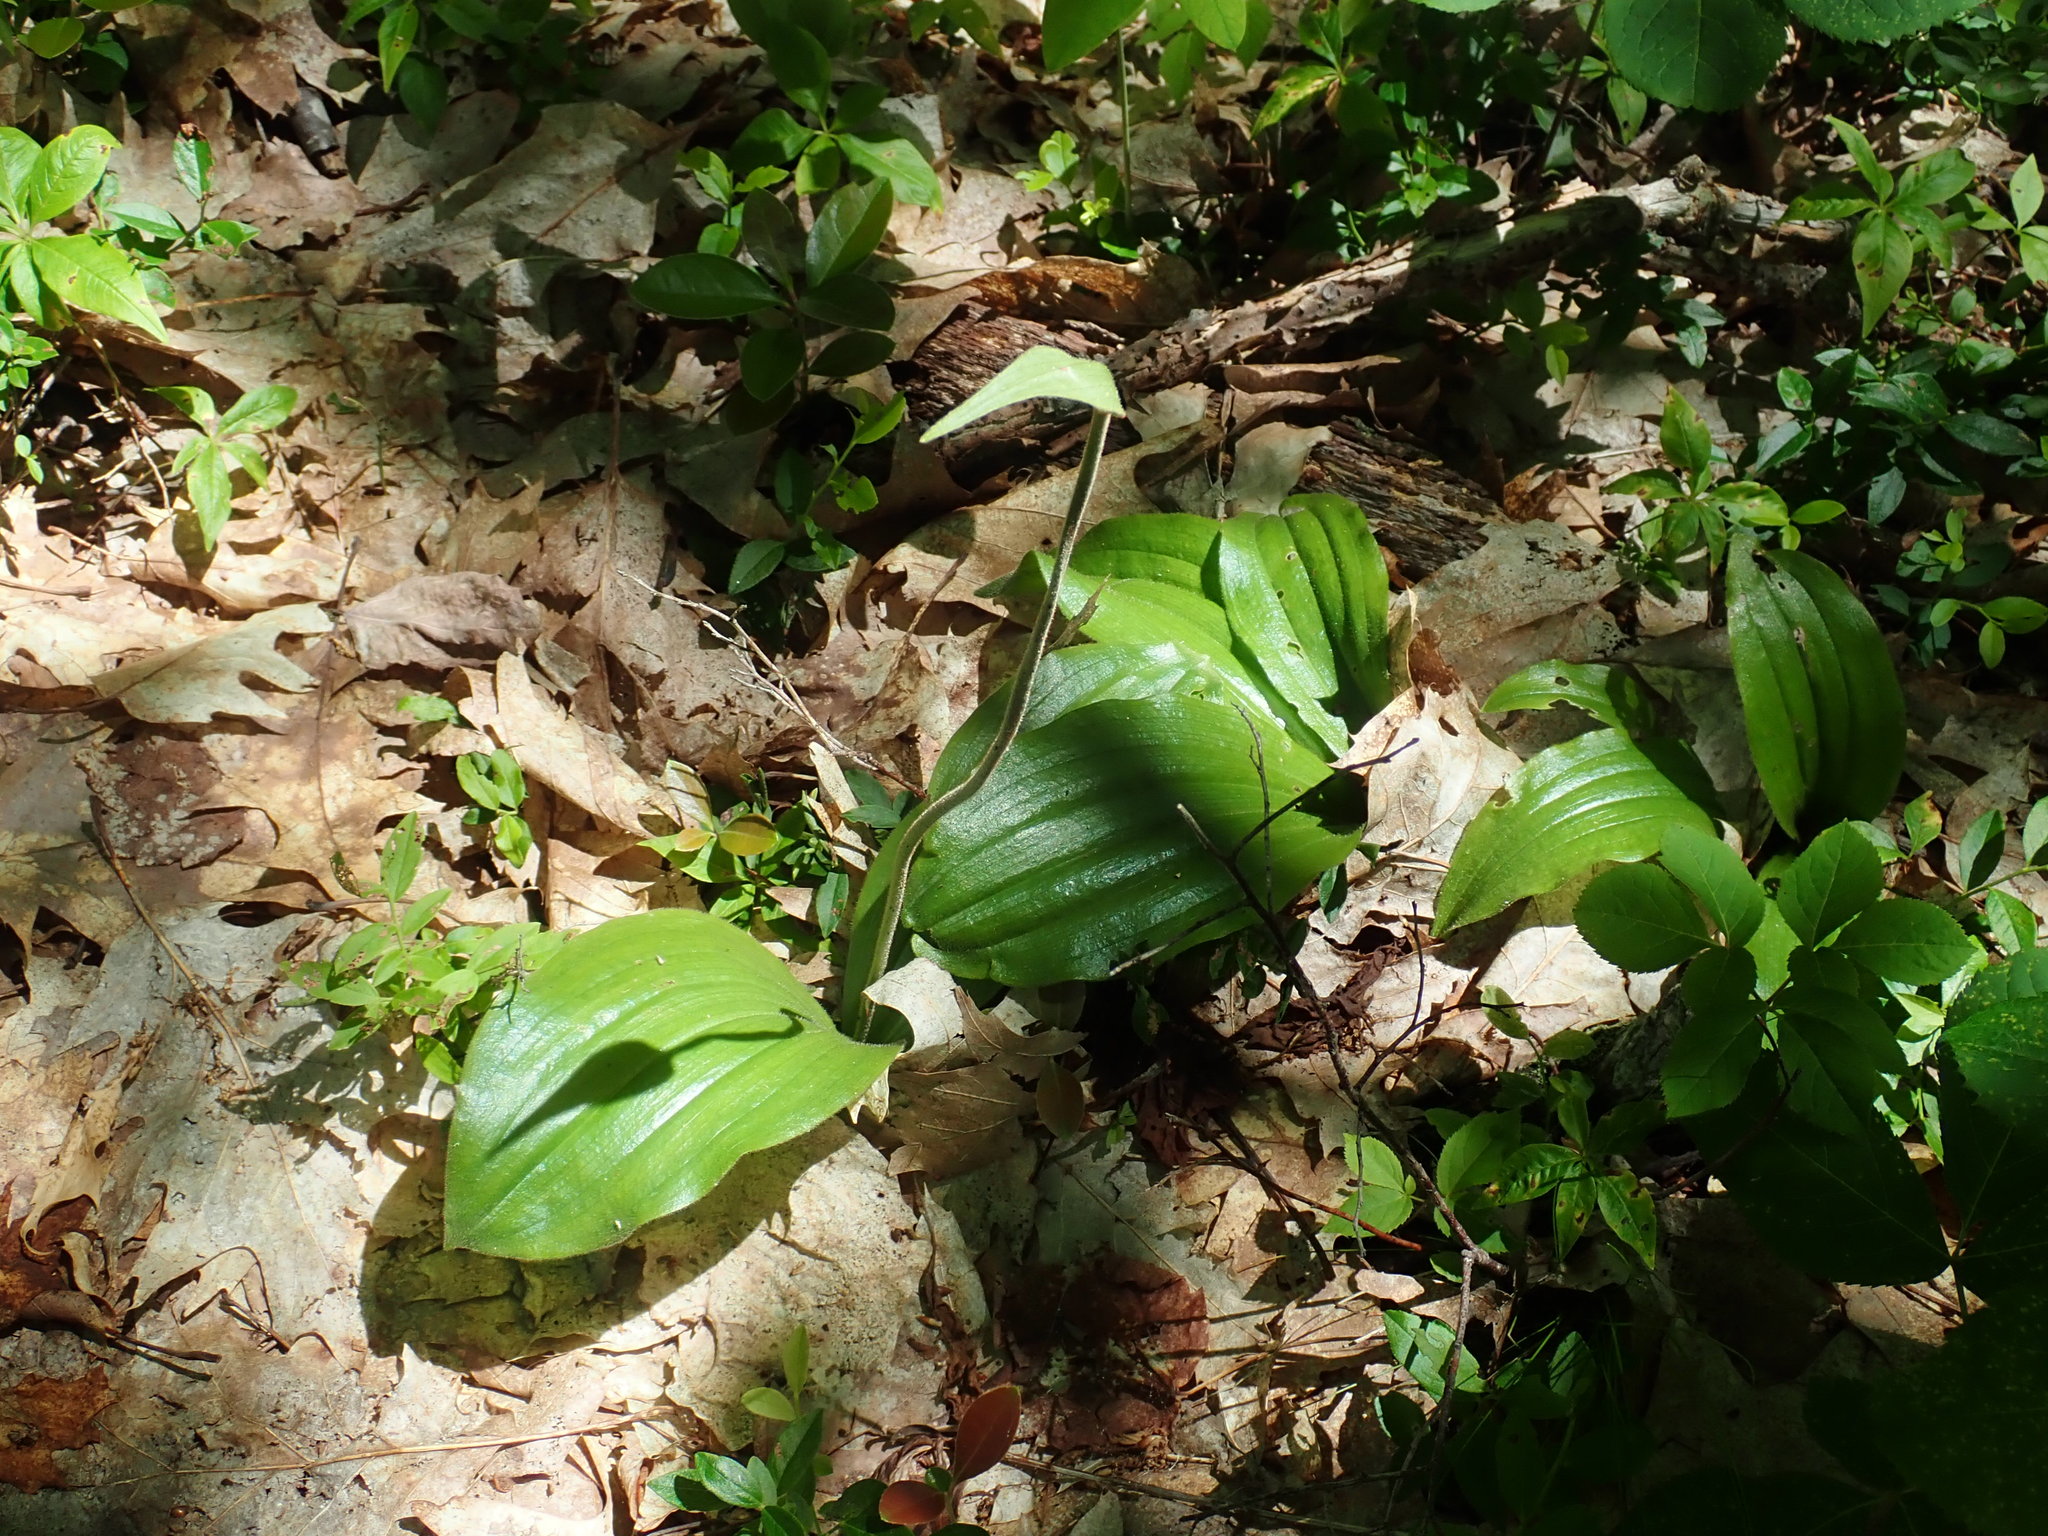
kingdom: Plantae
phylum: Tracheophyta
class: Liliopsida
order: Asparagales
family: Orchidaceae
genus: Cypripedium
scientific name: Cypripedium acaule
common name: Pink lady's-slipper
